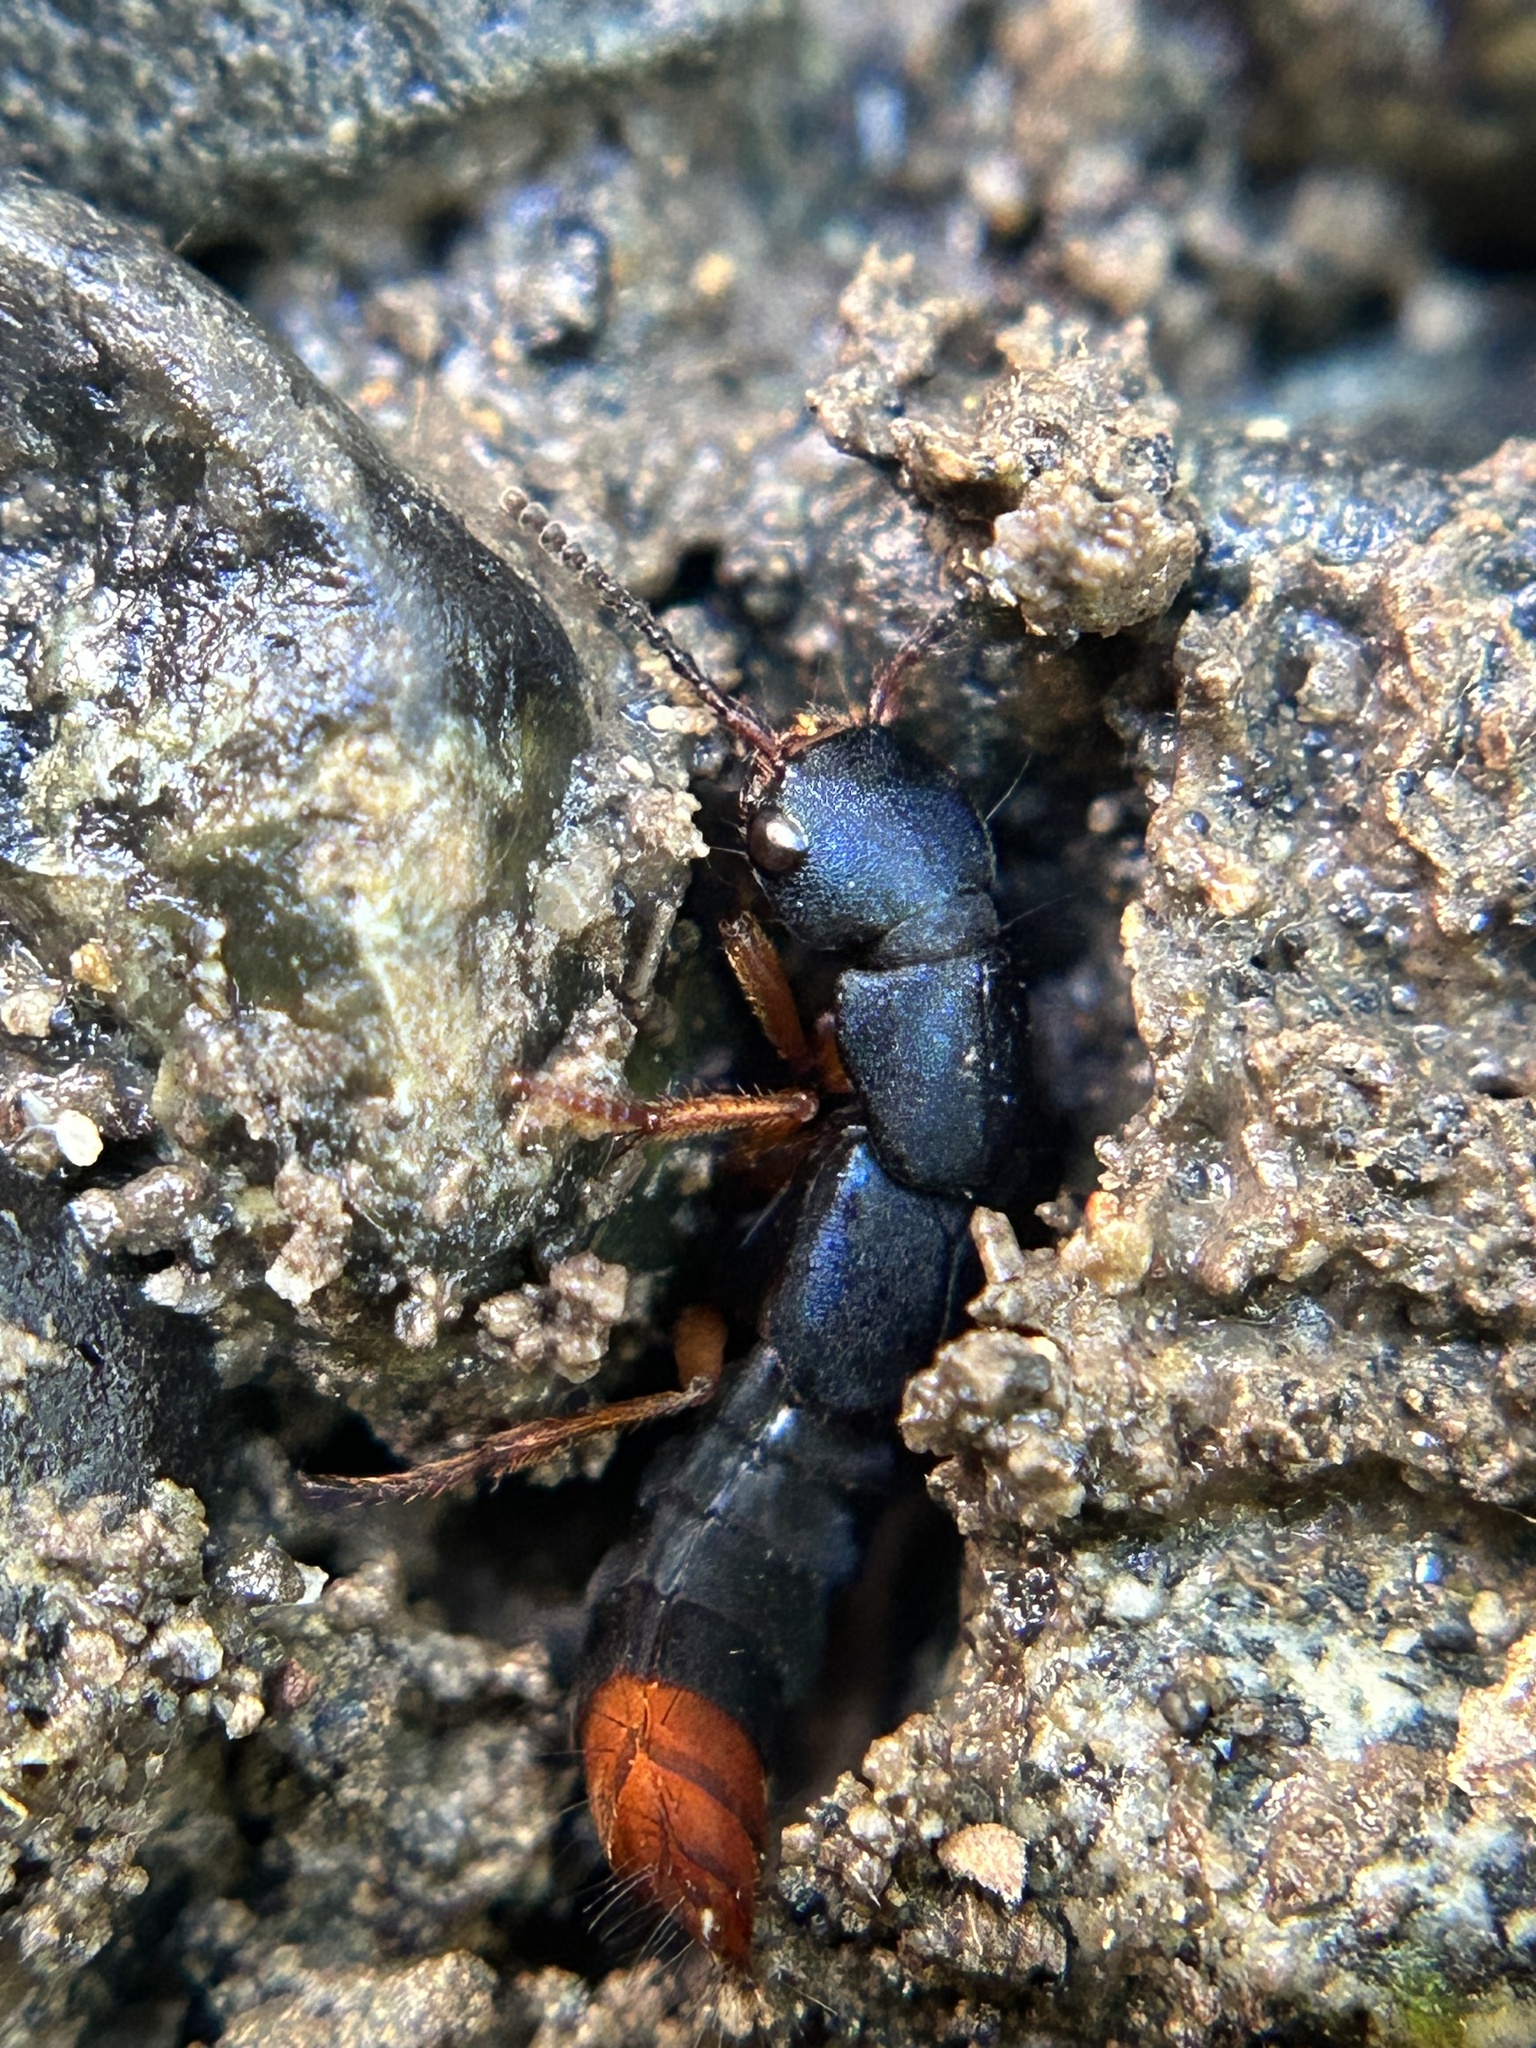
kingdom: Animalia
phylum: Arthropoda
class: Insecta
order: Coleoptera
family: Staphylinidae
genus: Dinothenarus
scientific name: Dinothenarus saphyrinus
